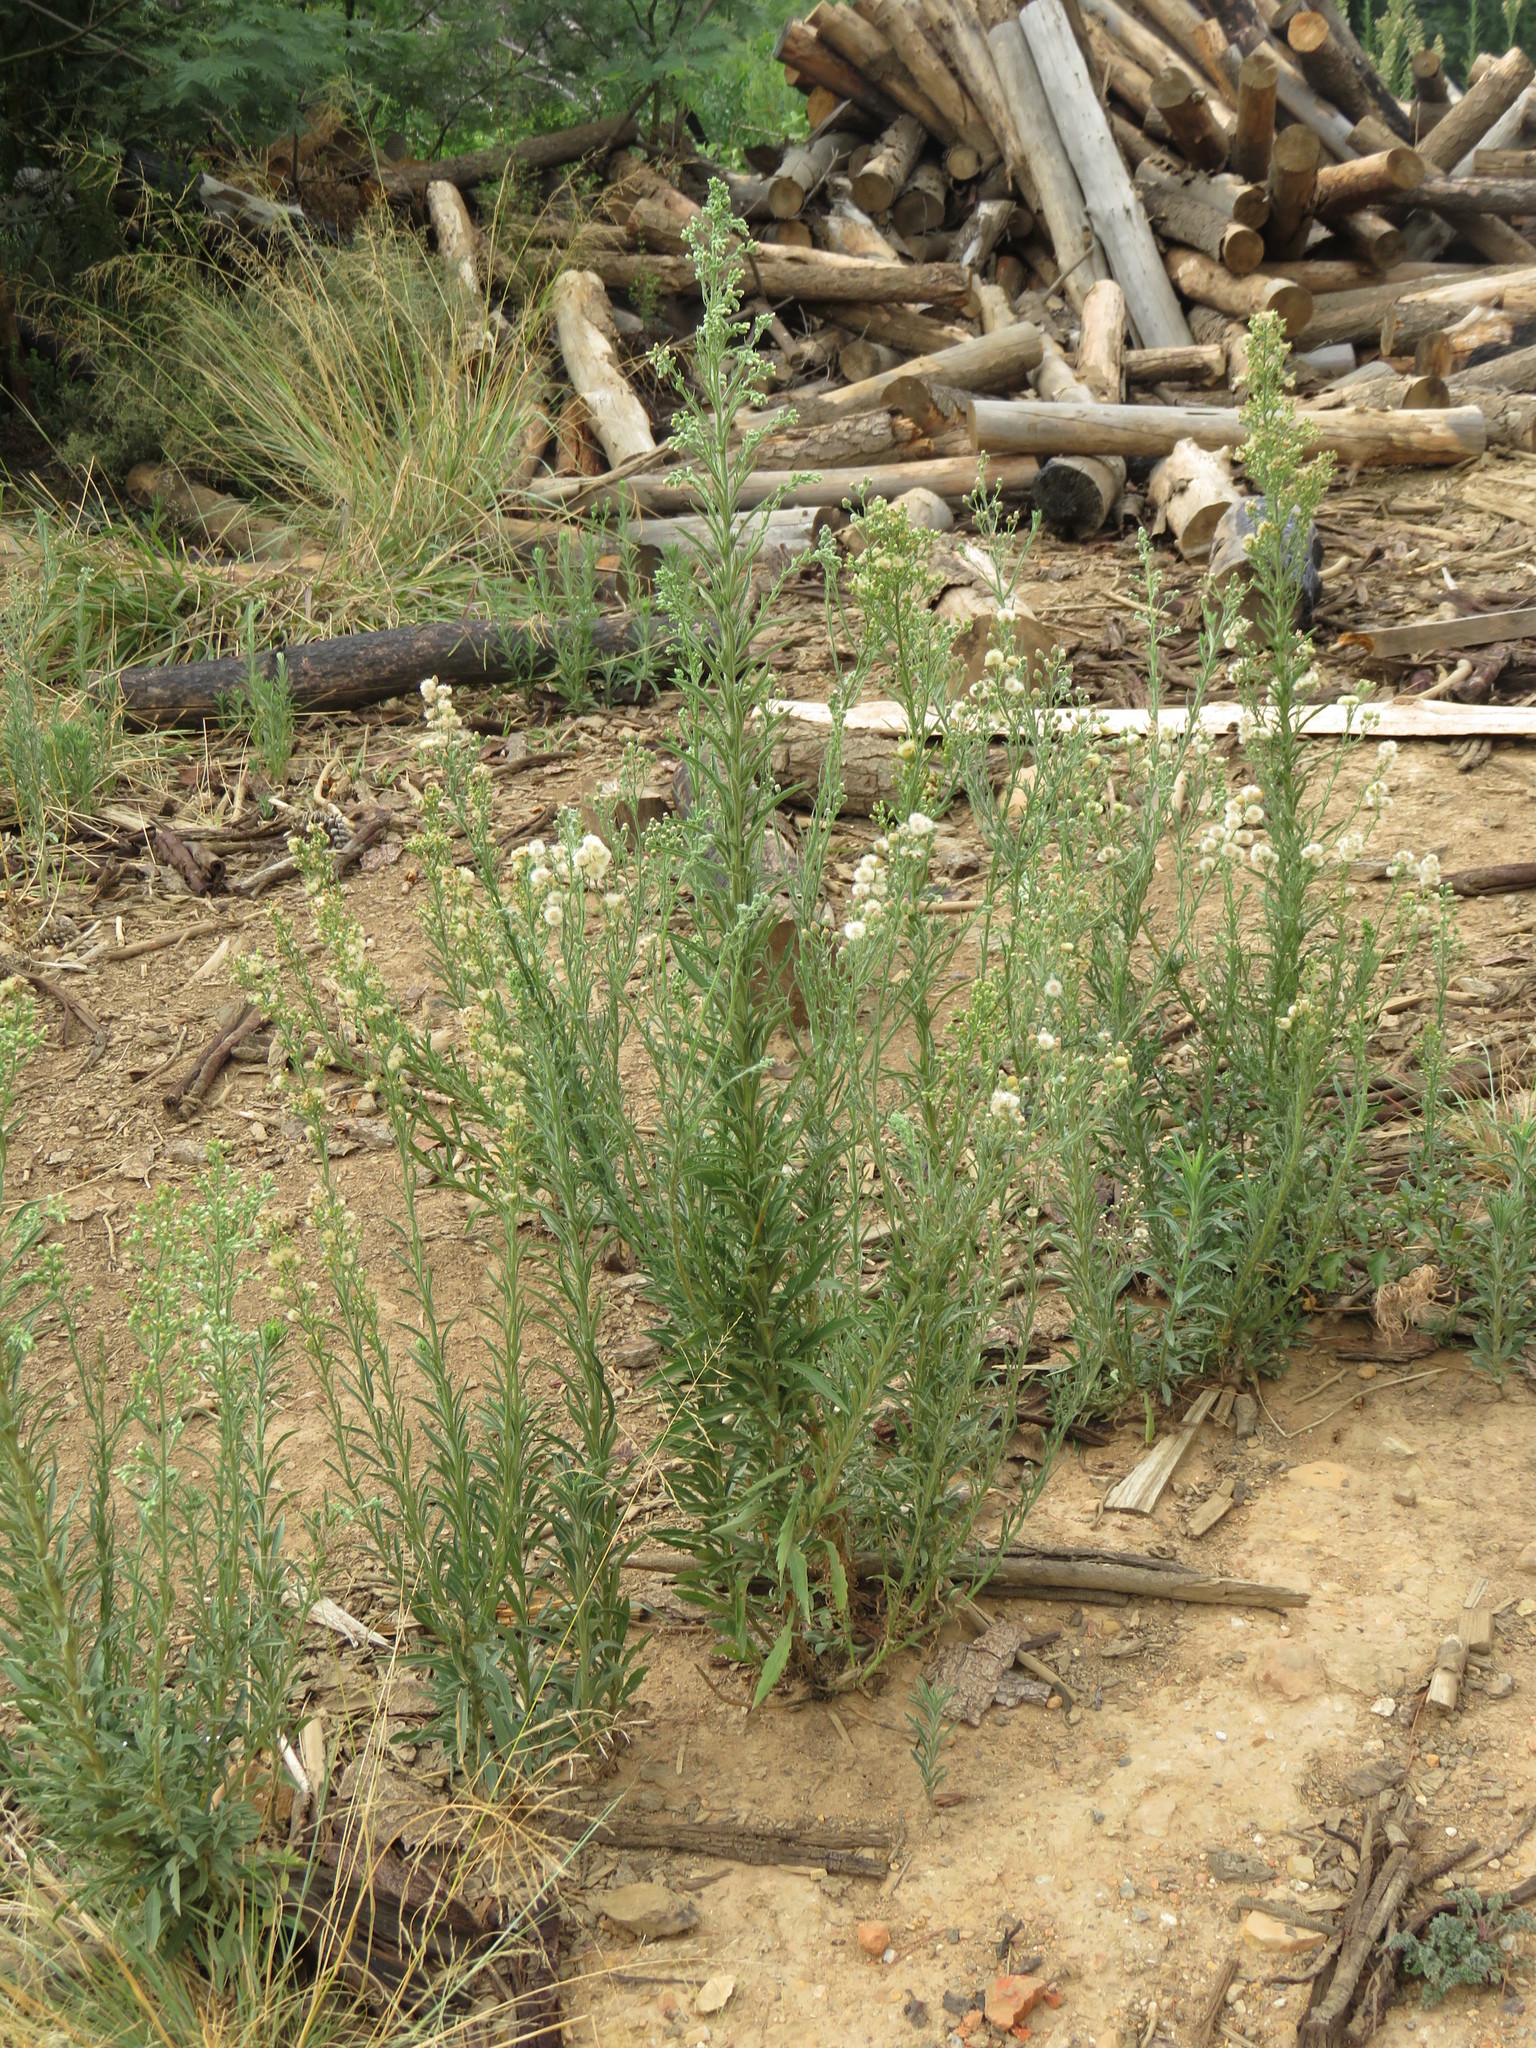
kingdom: Plantae
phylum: Tracheophyta
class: Magnoliopsida
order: Asterales
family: Asteraceae
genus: Erigeron
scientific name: Erigeron bonariensis
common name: Argentine fleabane
